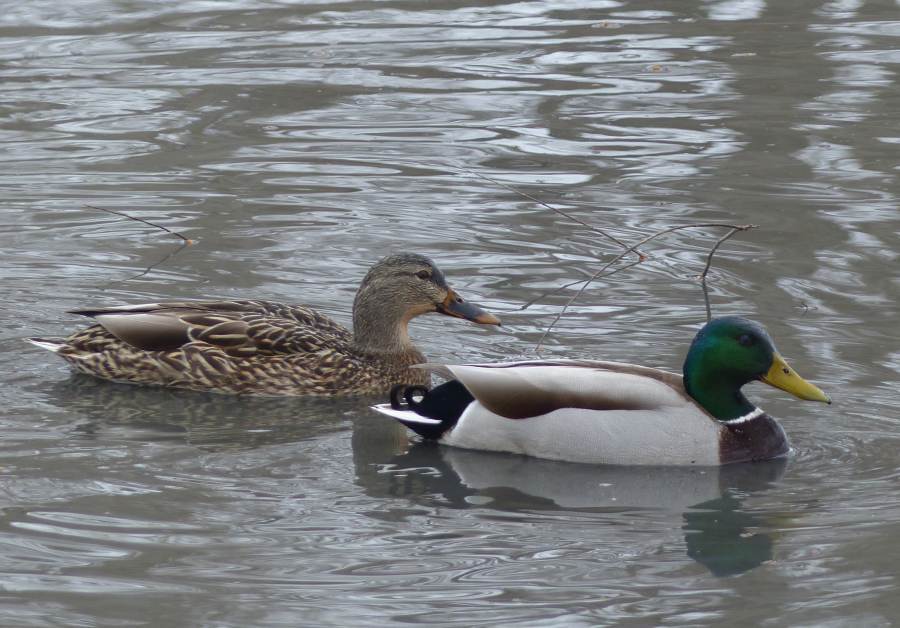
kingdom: Animalia
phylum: Chordata
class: Aves
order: Anseriformes
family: Anatidae
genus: Anas
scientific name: Anas platyrhynchos
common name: Mallard
